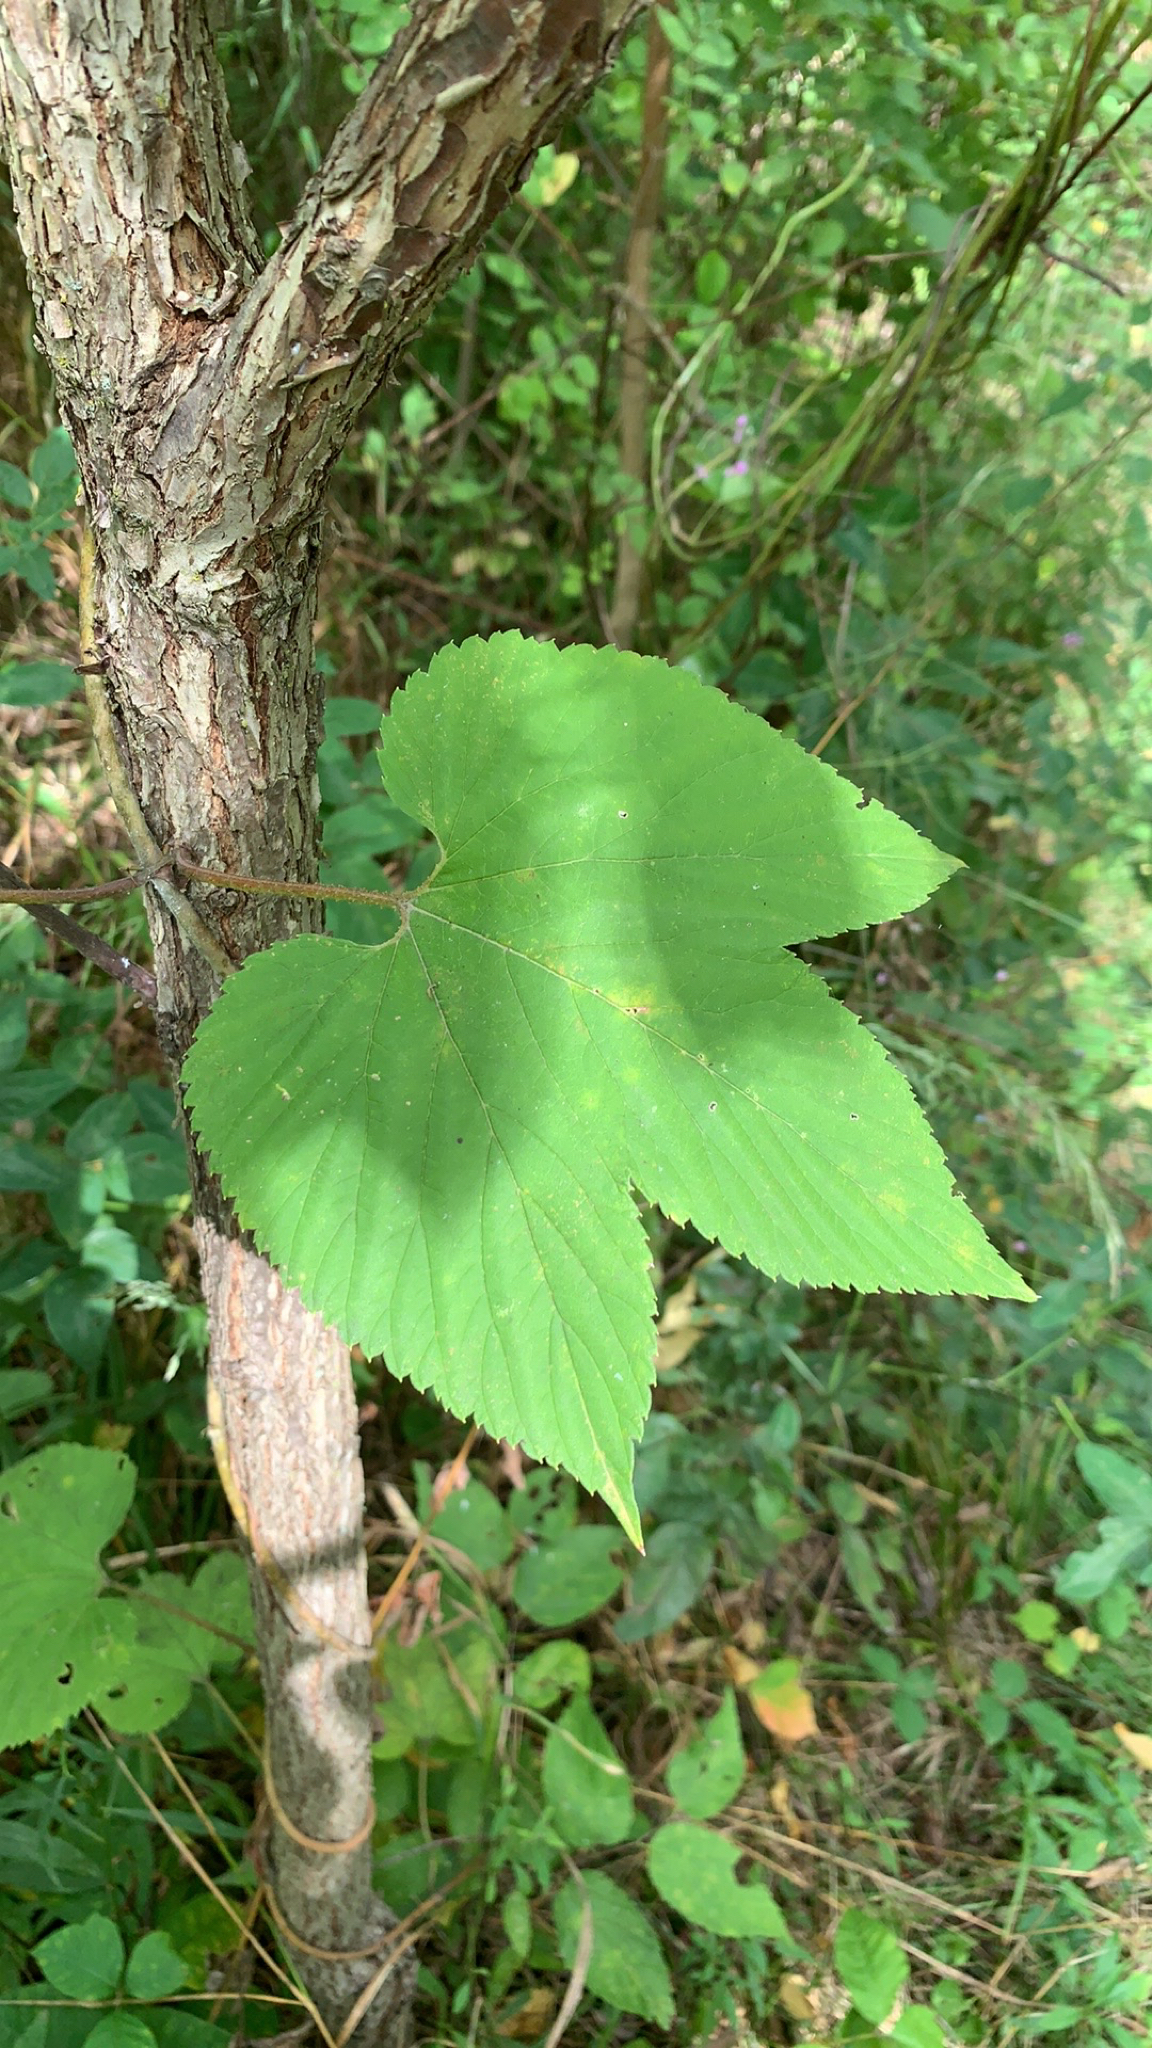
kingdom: Plantae
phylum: Tracheophyta
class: Magnoliopsida
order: Rosales
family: Cannabaceae
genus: Humulus
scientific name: Humulus lupulus
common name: Hop
